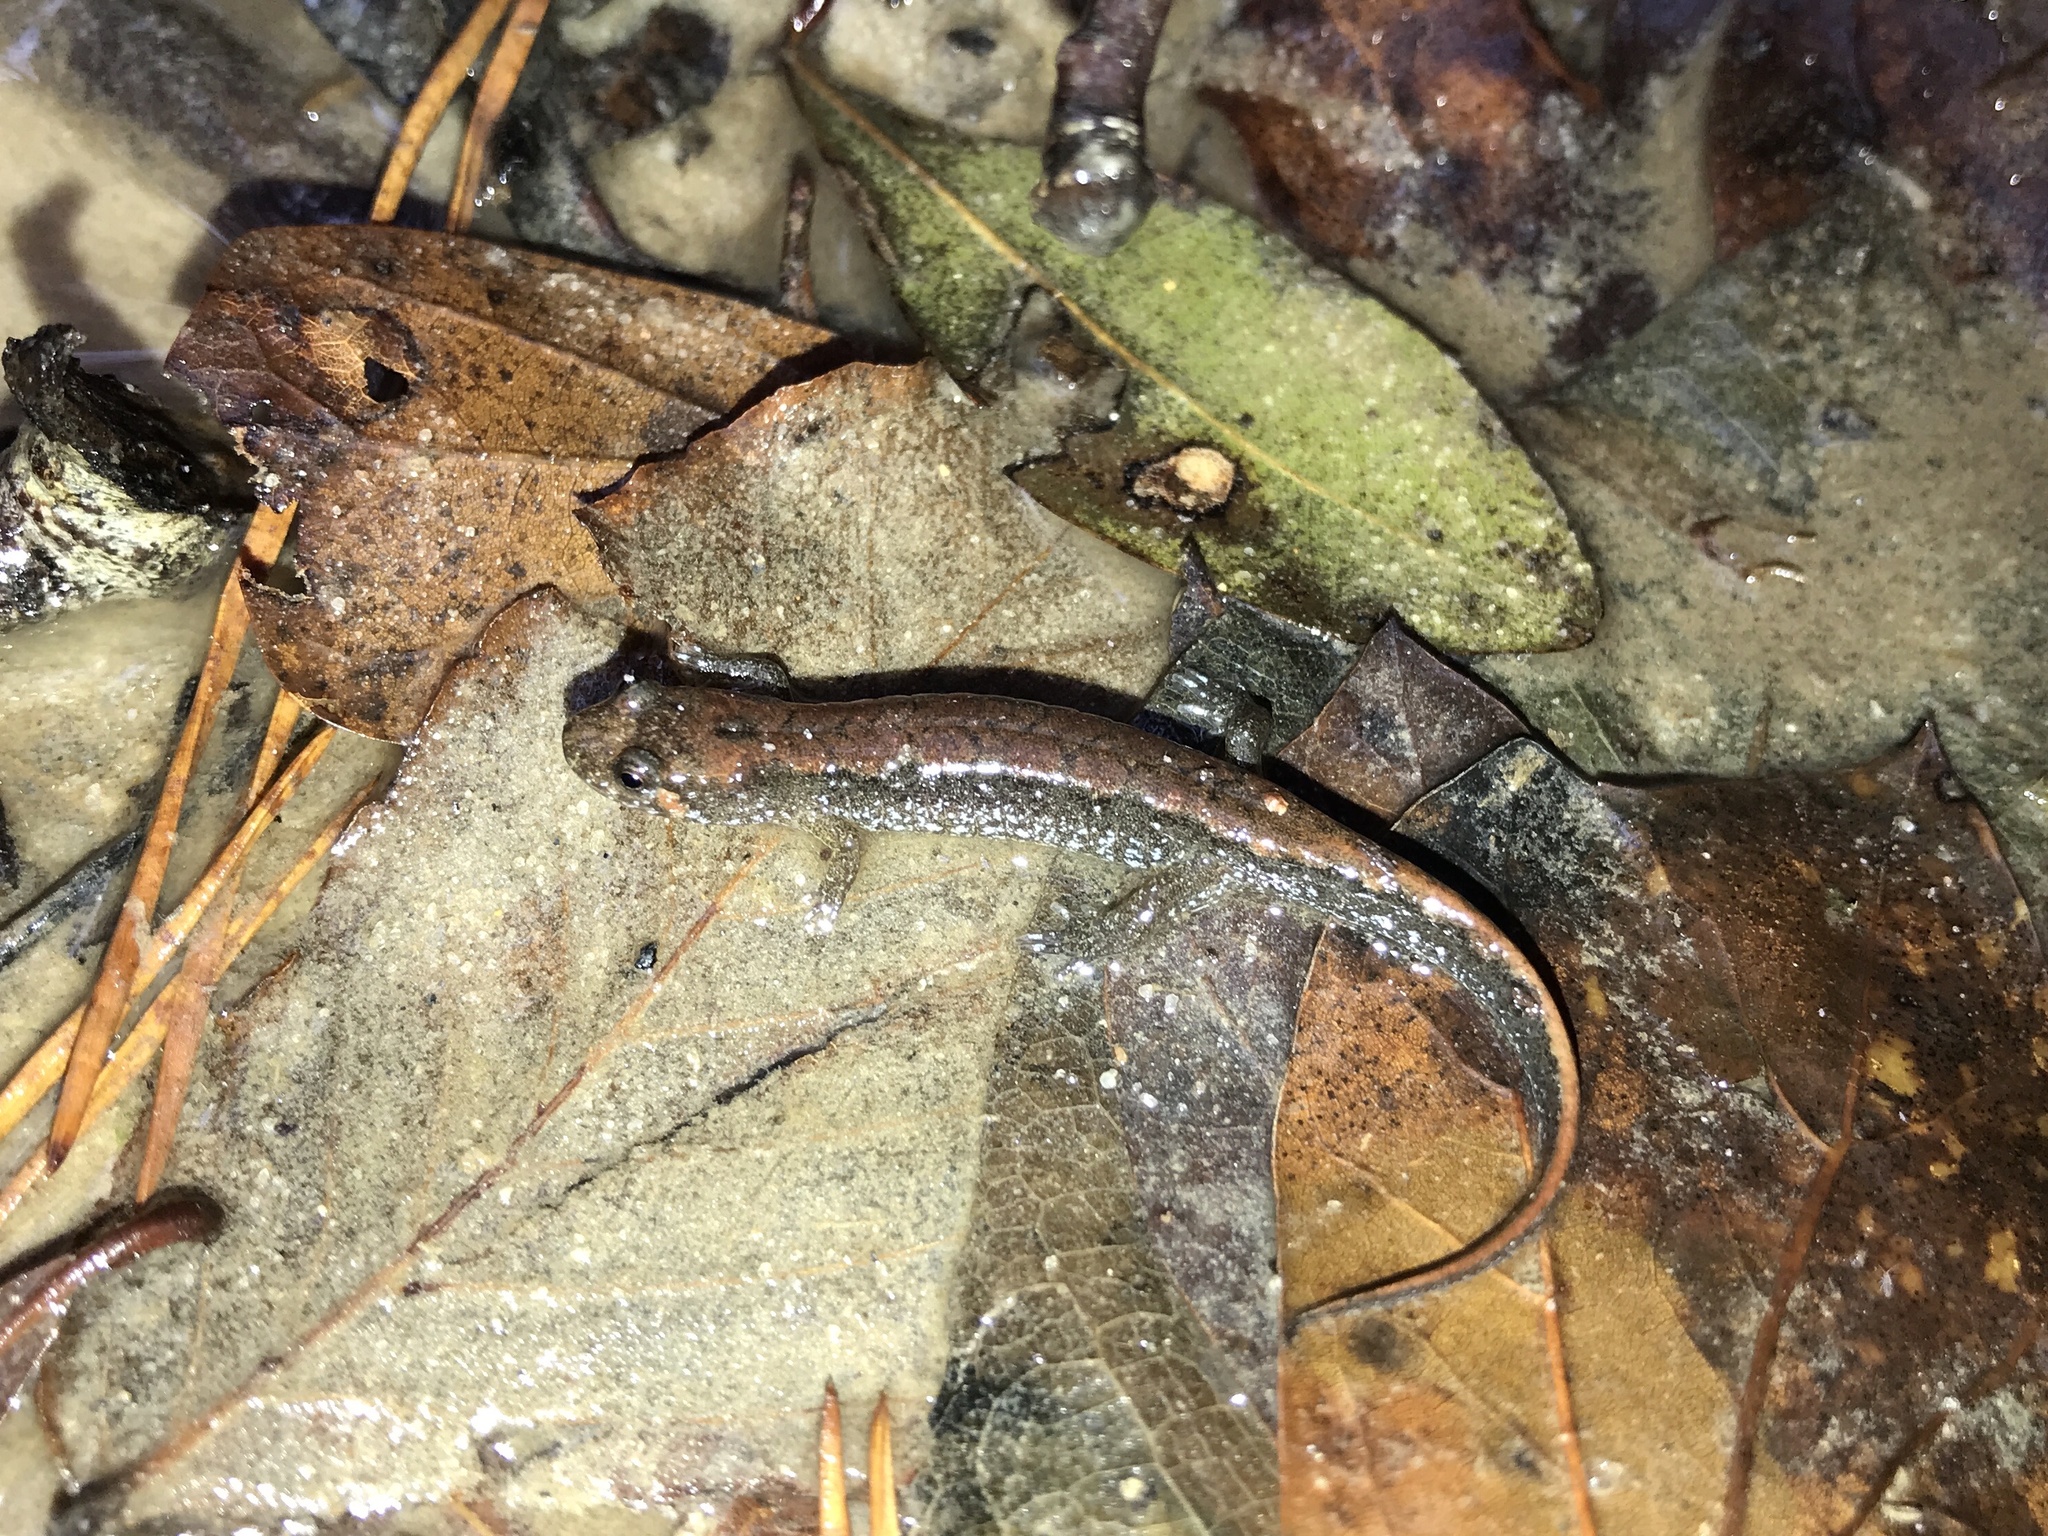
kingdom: Animalia
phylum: Chordata
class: Amphibia
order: Caudata
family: Plethodontidae
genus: Desmognathus
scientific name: Desmognathus conanti
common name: Spotted dusky salamander
